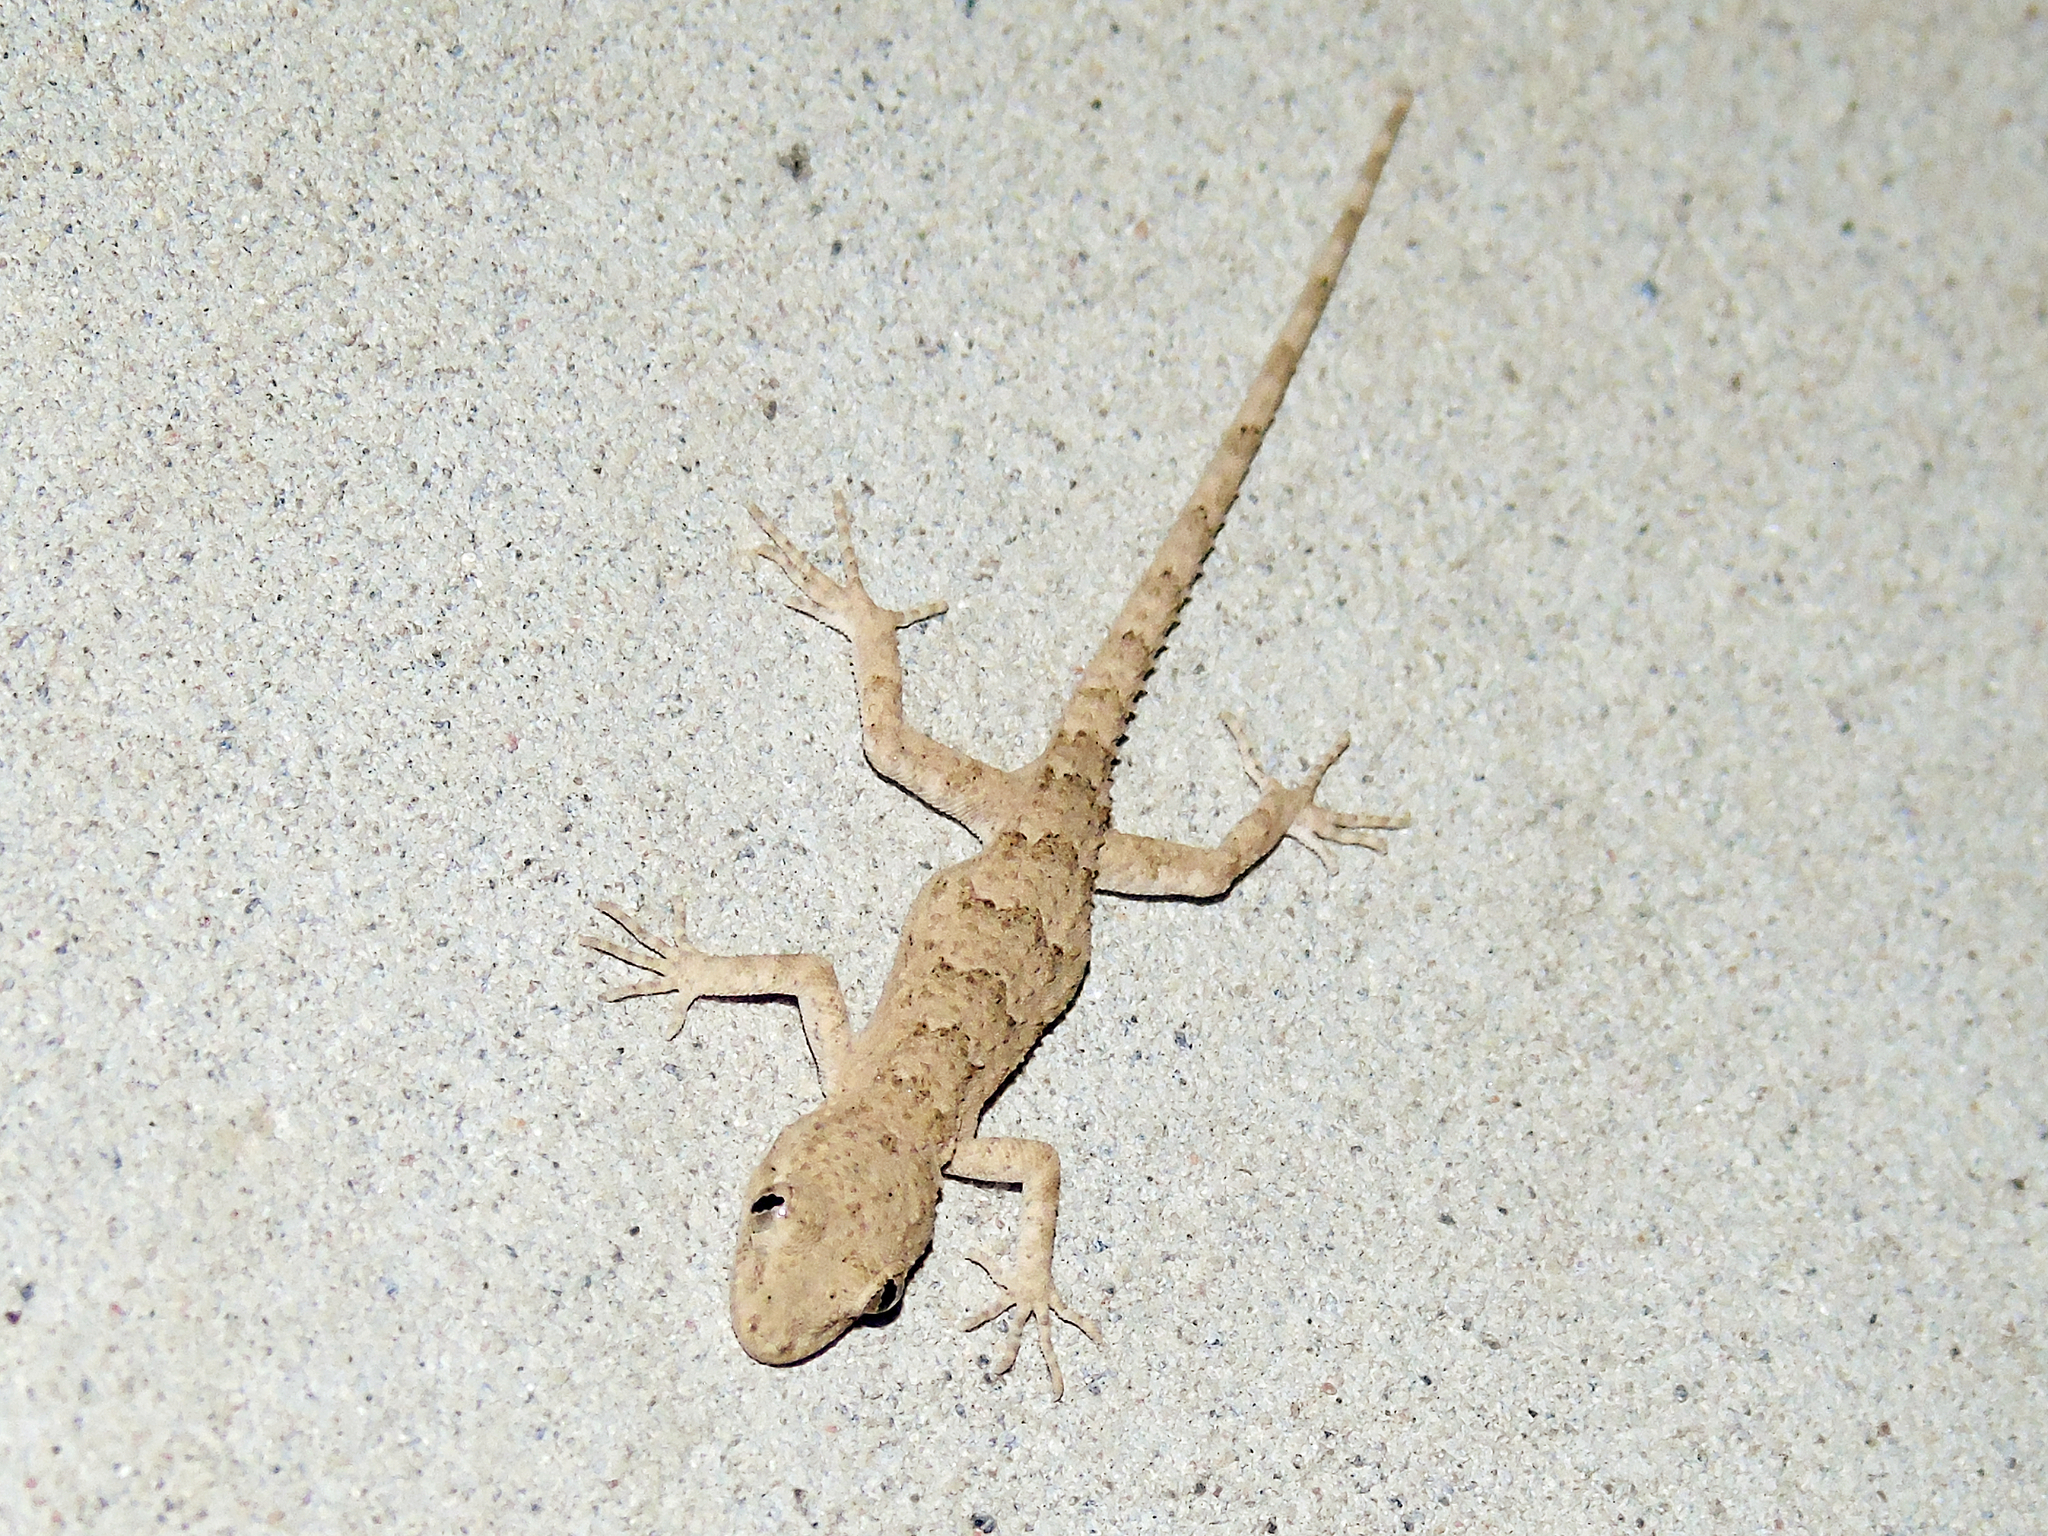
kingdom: Animalia
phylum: Chordata
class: Squamata
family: Gekkonidae
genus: Mediodactylus
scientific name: Mediodactylus russowii
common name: Grey thin-toed gecko
